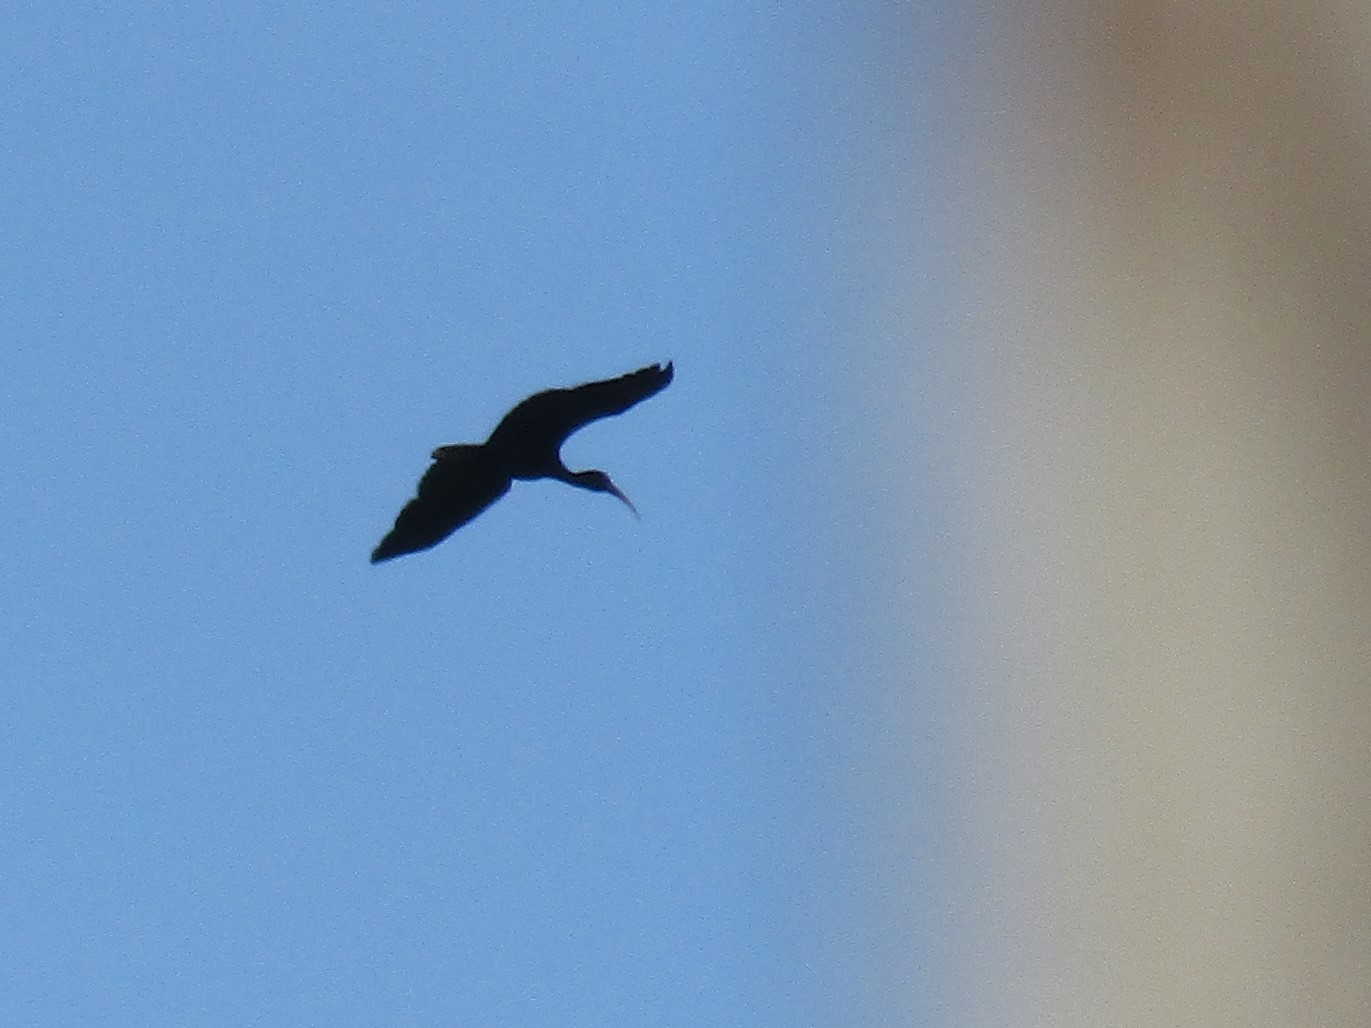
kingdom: Animalia
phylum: Chordata
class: Aves
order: Pelecaniformes
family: Threskiornithidae
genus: Plegadis
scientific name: Plegadis chihi
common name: White-faced ibis
